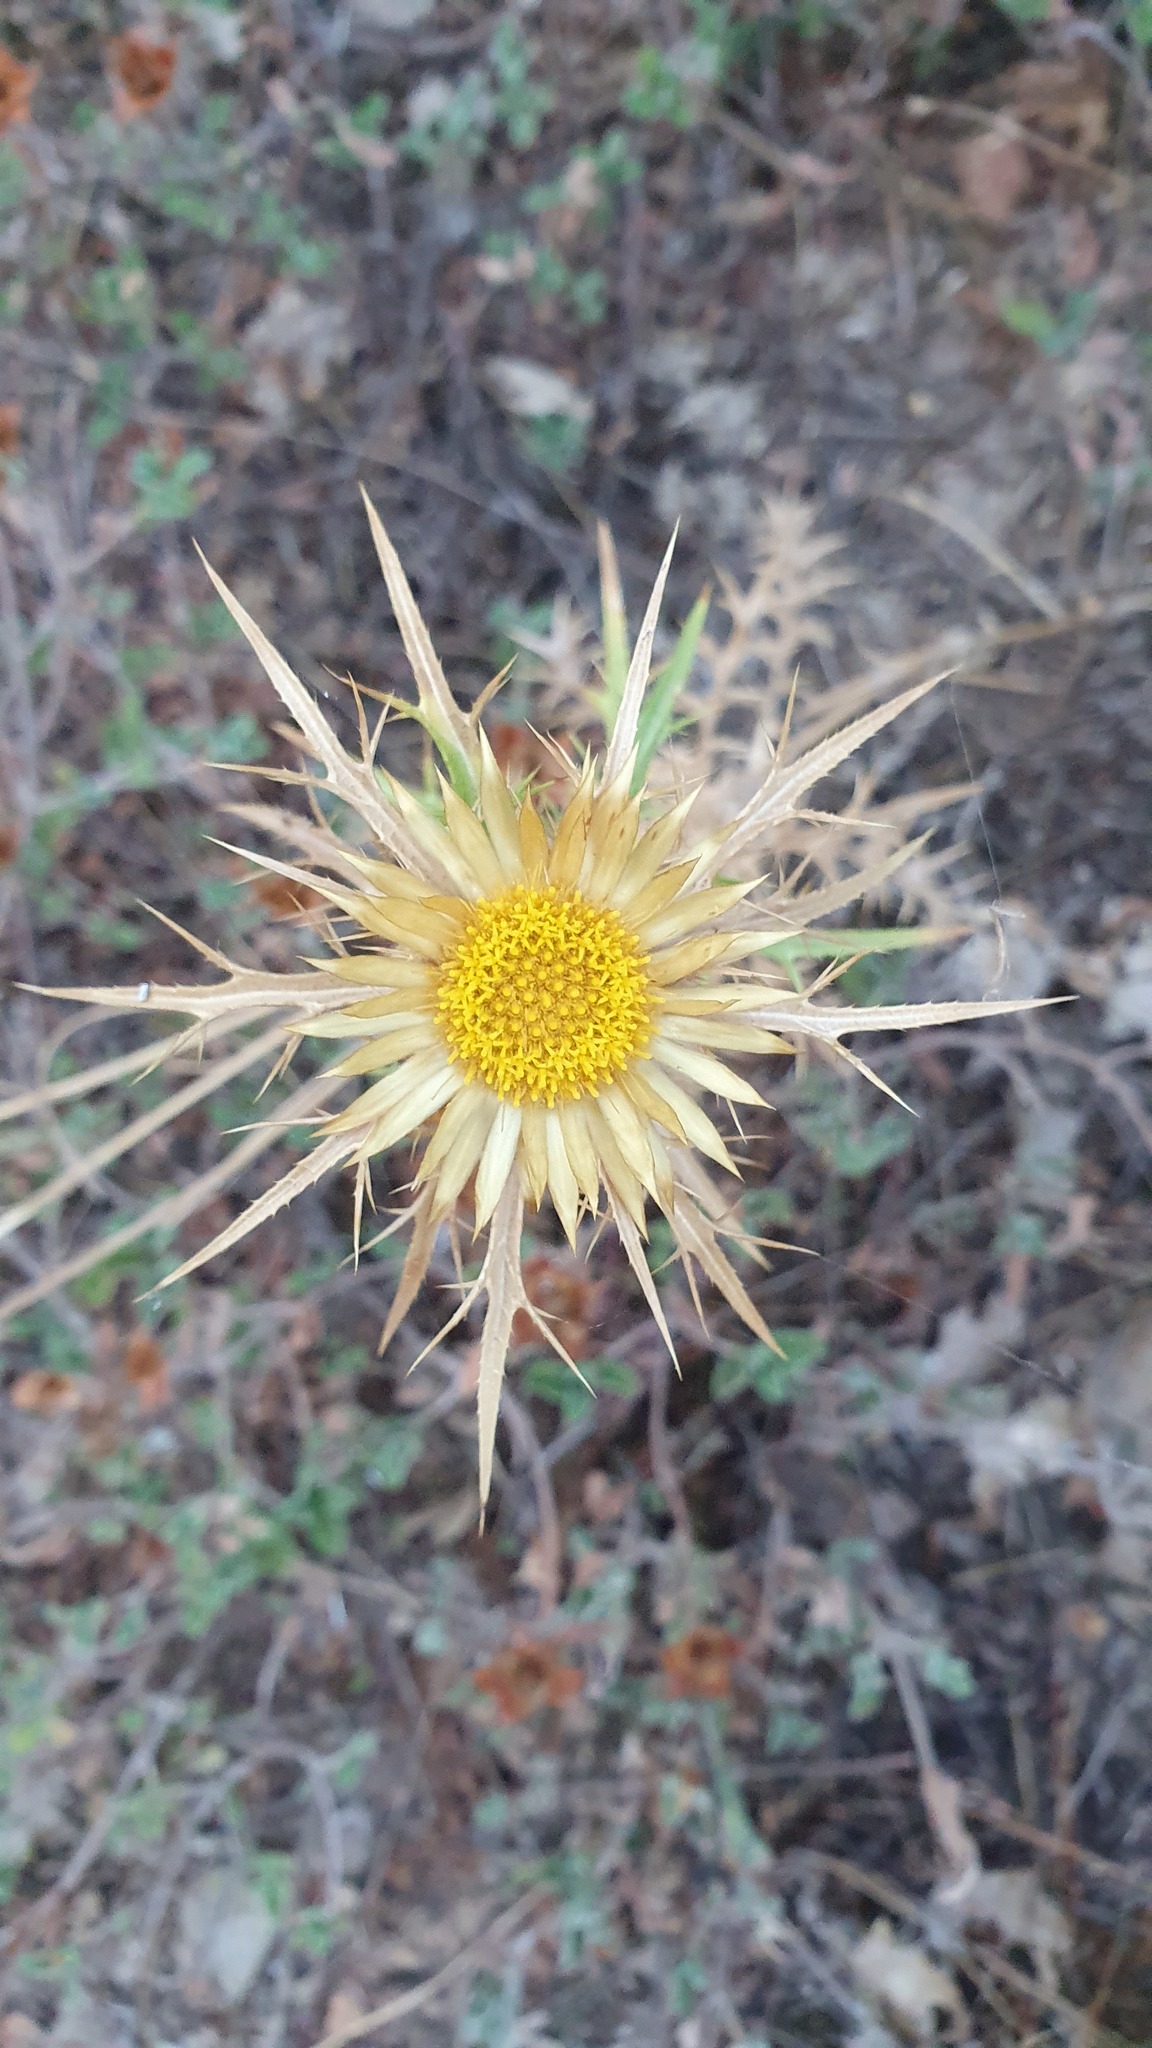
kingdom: Plantae
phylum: Tracheophyta
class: Magnoliopsida
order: Asterales
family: Asteraceae
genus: Carlina
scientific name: Carlina graeca
